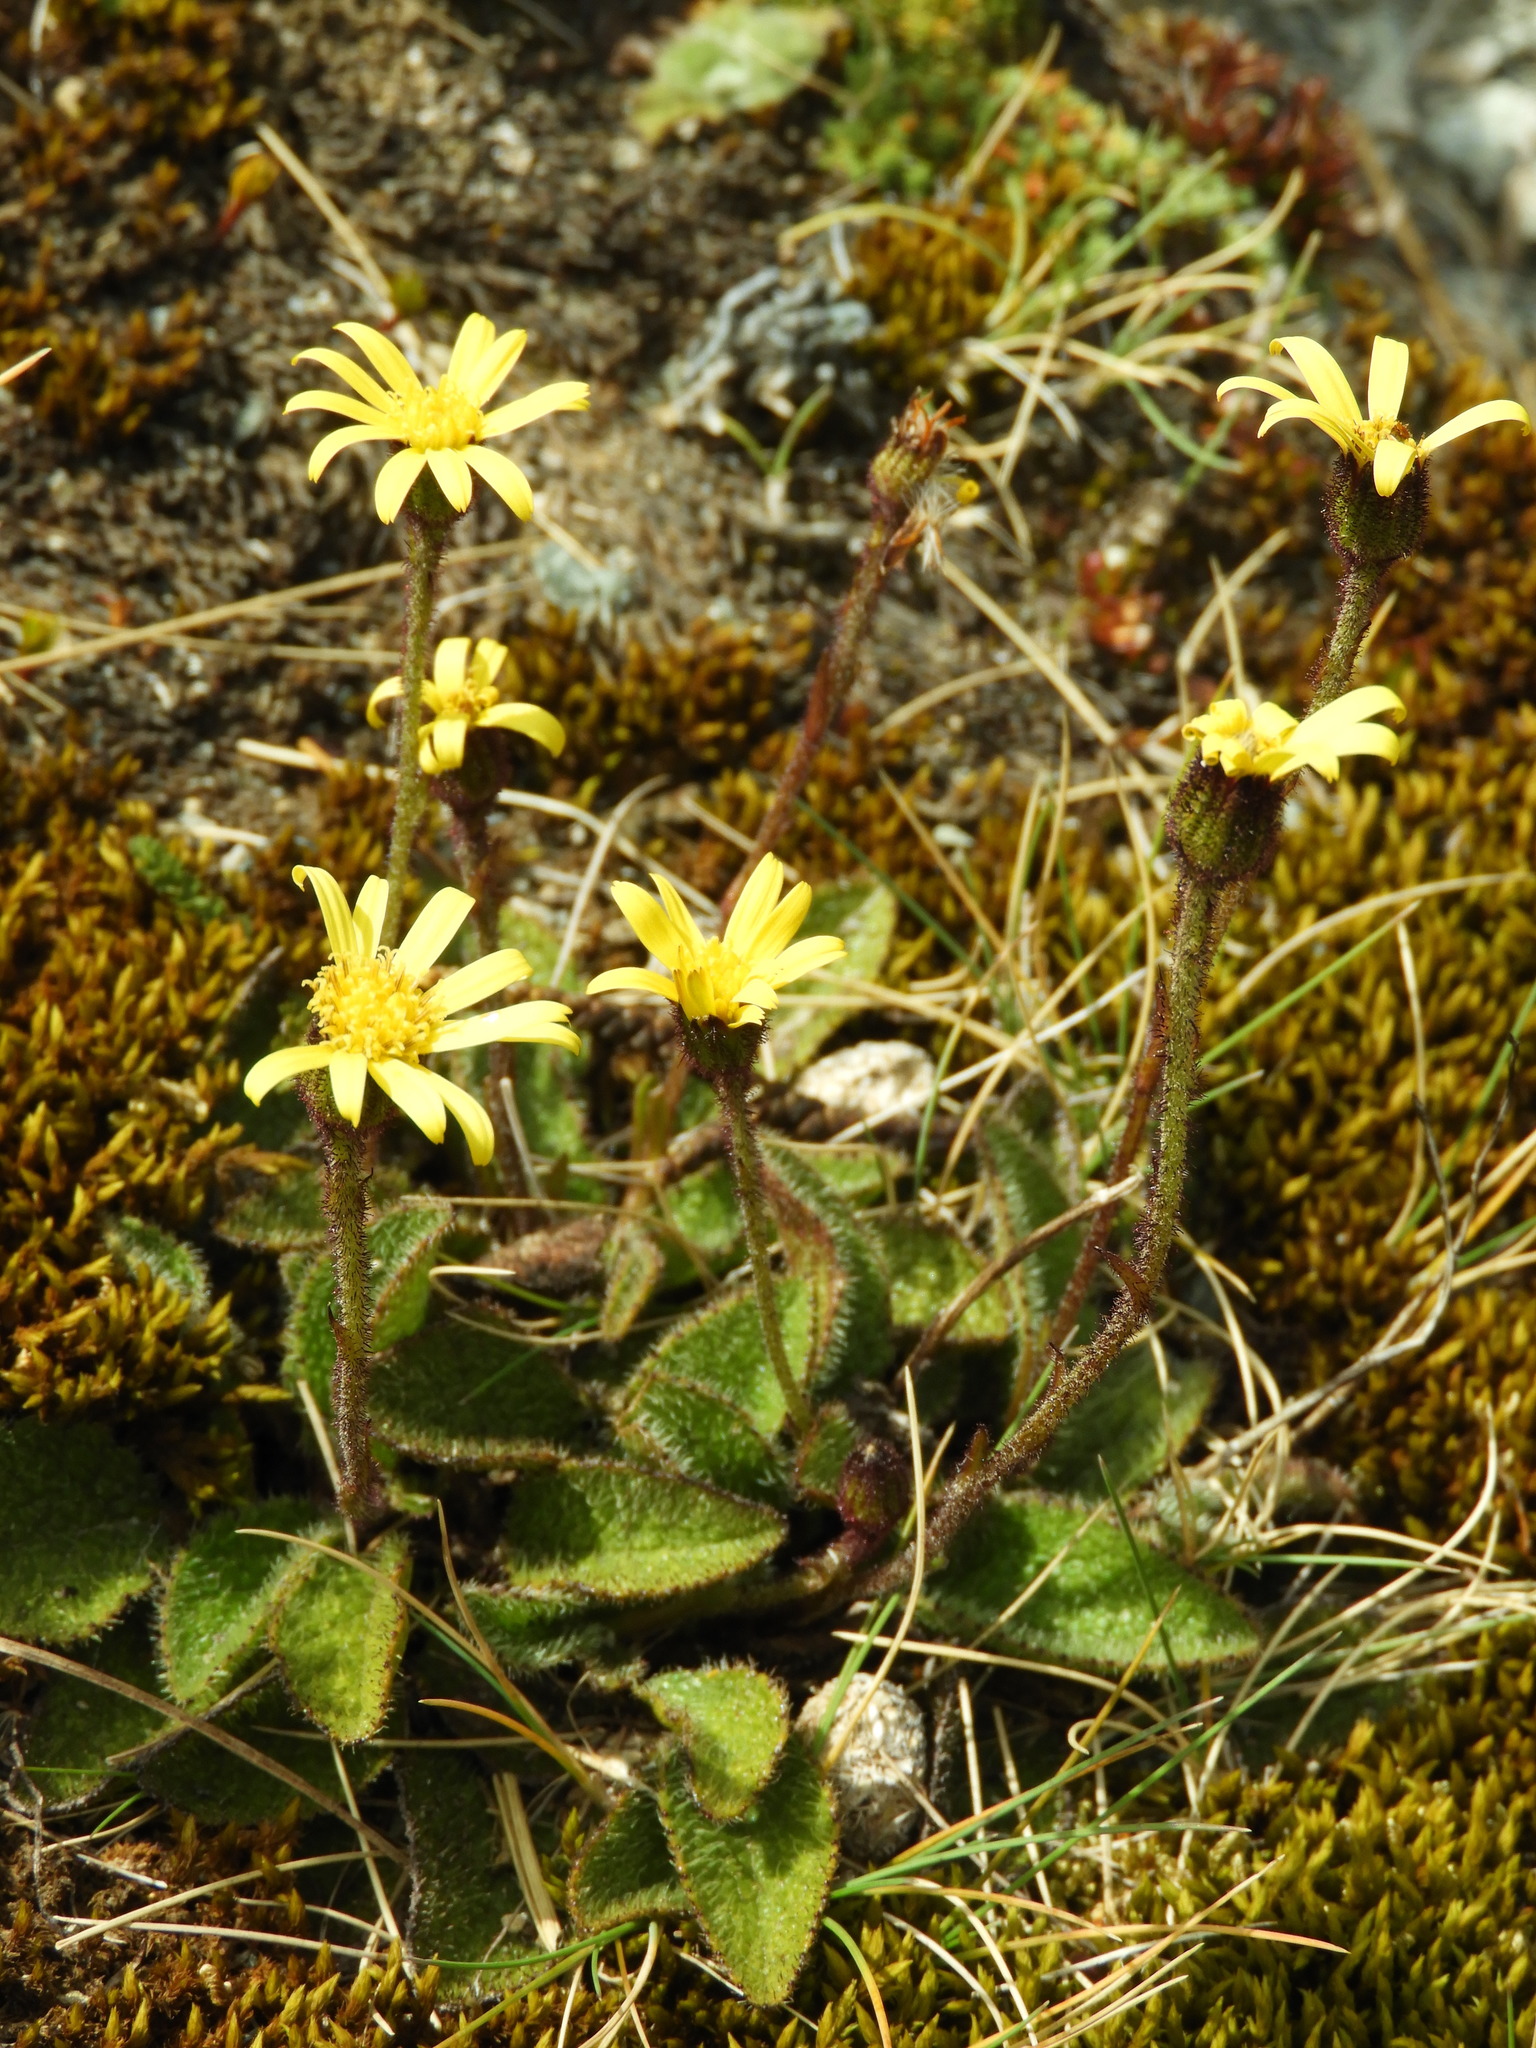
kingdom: Plantae
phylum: Tracheophyta
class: Magnoliopsida
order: Asterales
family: Asteraceae
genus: Brachyglottis
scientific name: Brachyglottis bellidioides
